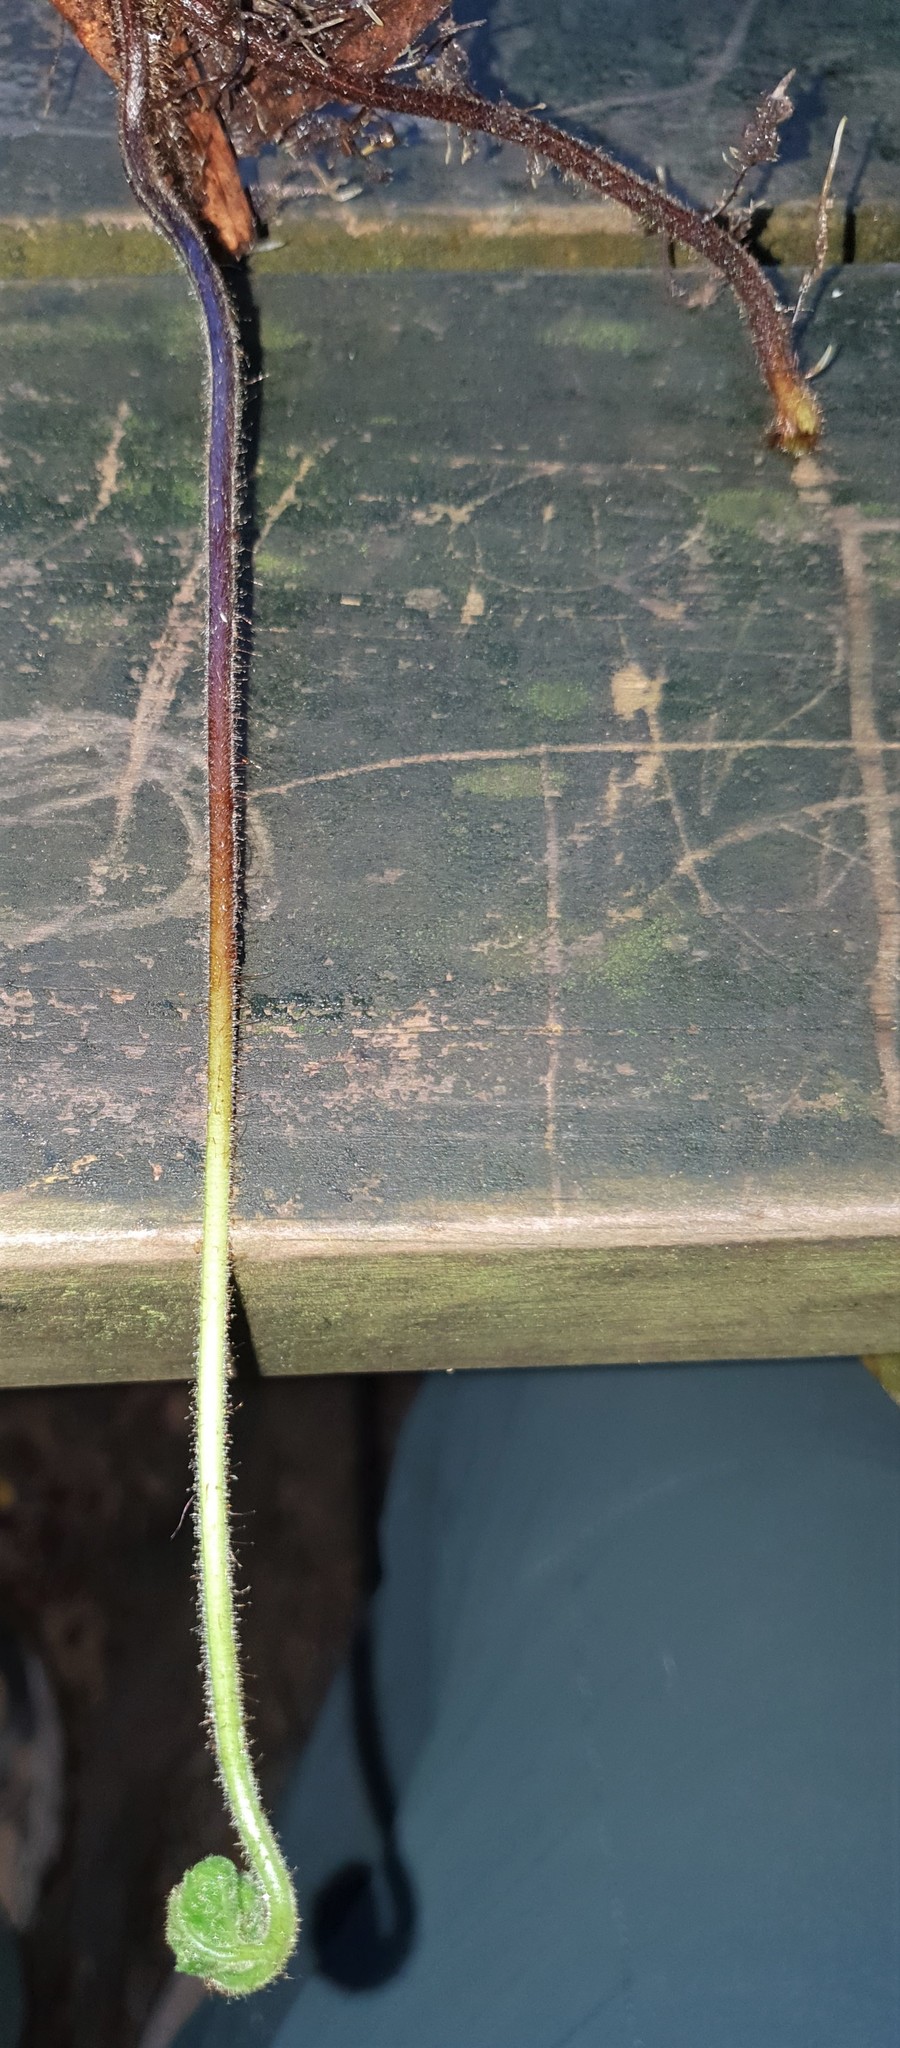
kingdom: Plantae
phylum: Tracheophyta
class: Polypodiopsida
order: Polypodiales
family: Dennstaedtiaceae
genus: Hypolepis
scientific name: Hypolepis rugosula
